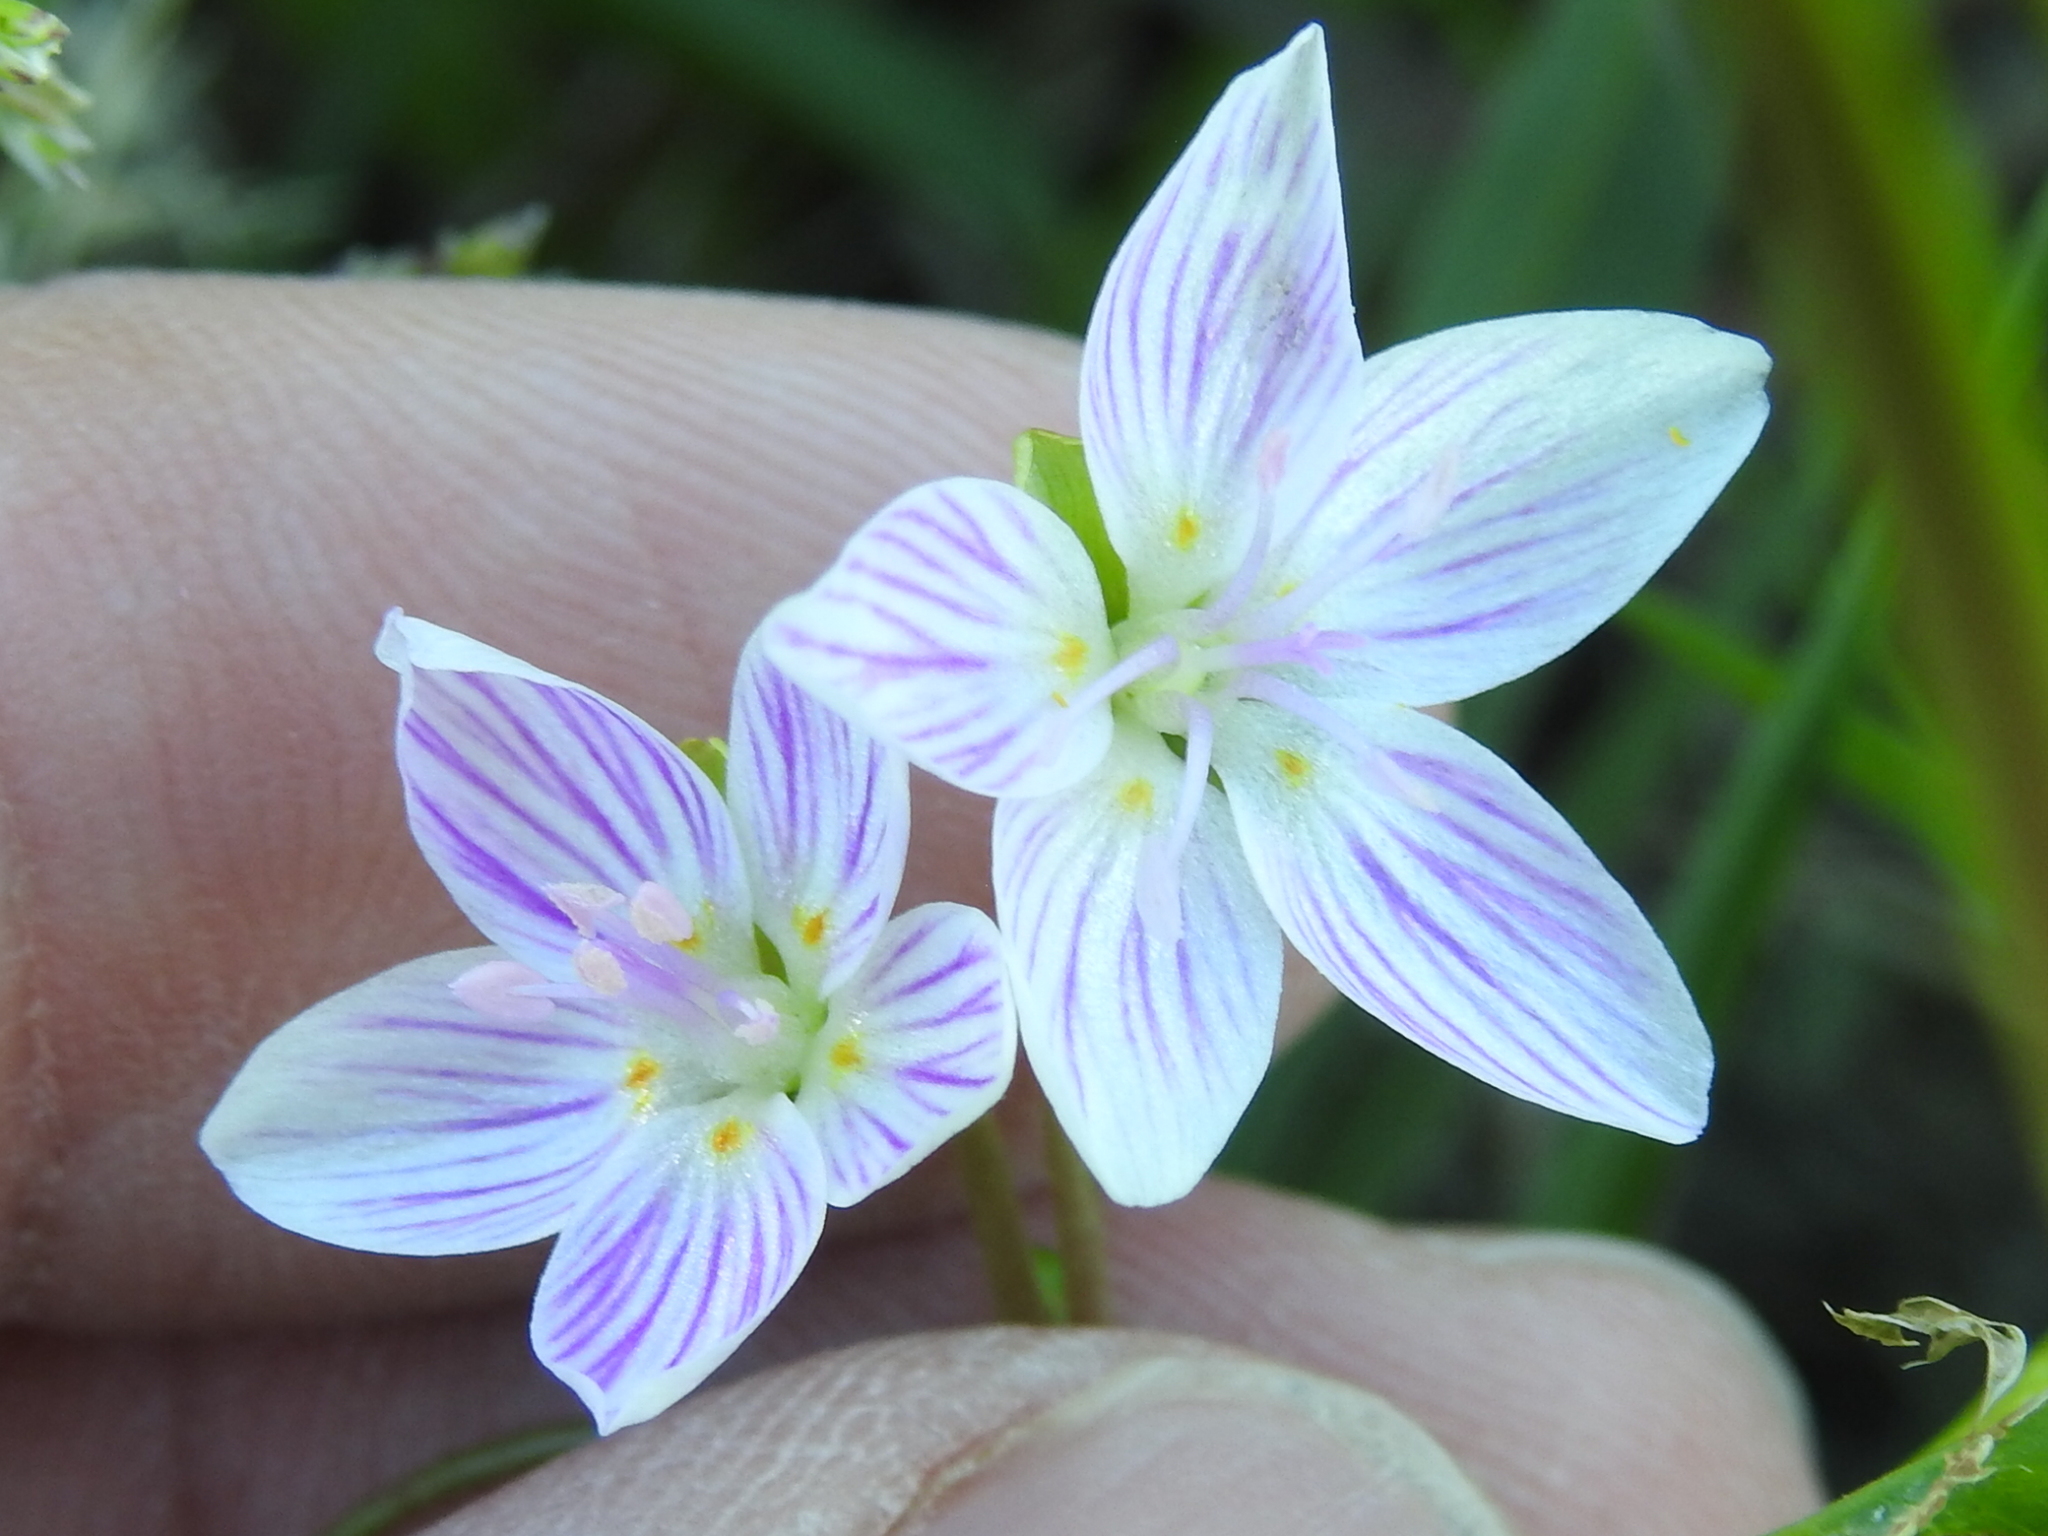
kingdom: Plantae
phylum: Tracheophyta
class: Magnoliopsida
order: Caryophyllales
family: Montiaceae
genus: Claytonia
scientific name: Claytonia virginica
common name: Virginia springbeauty
